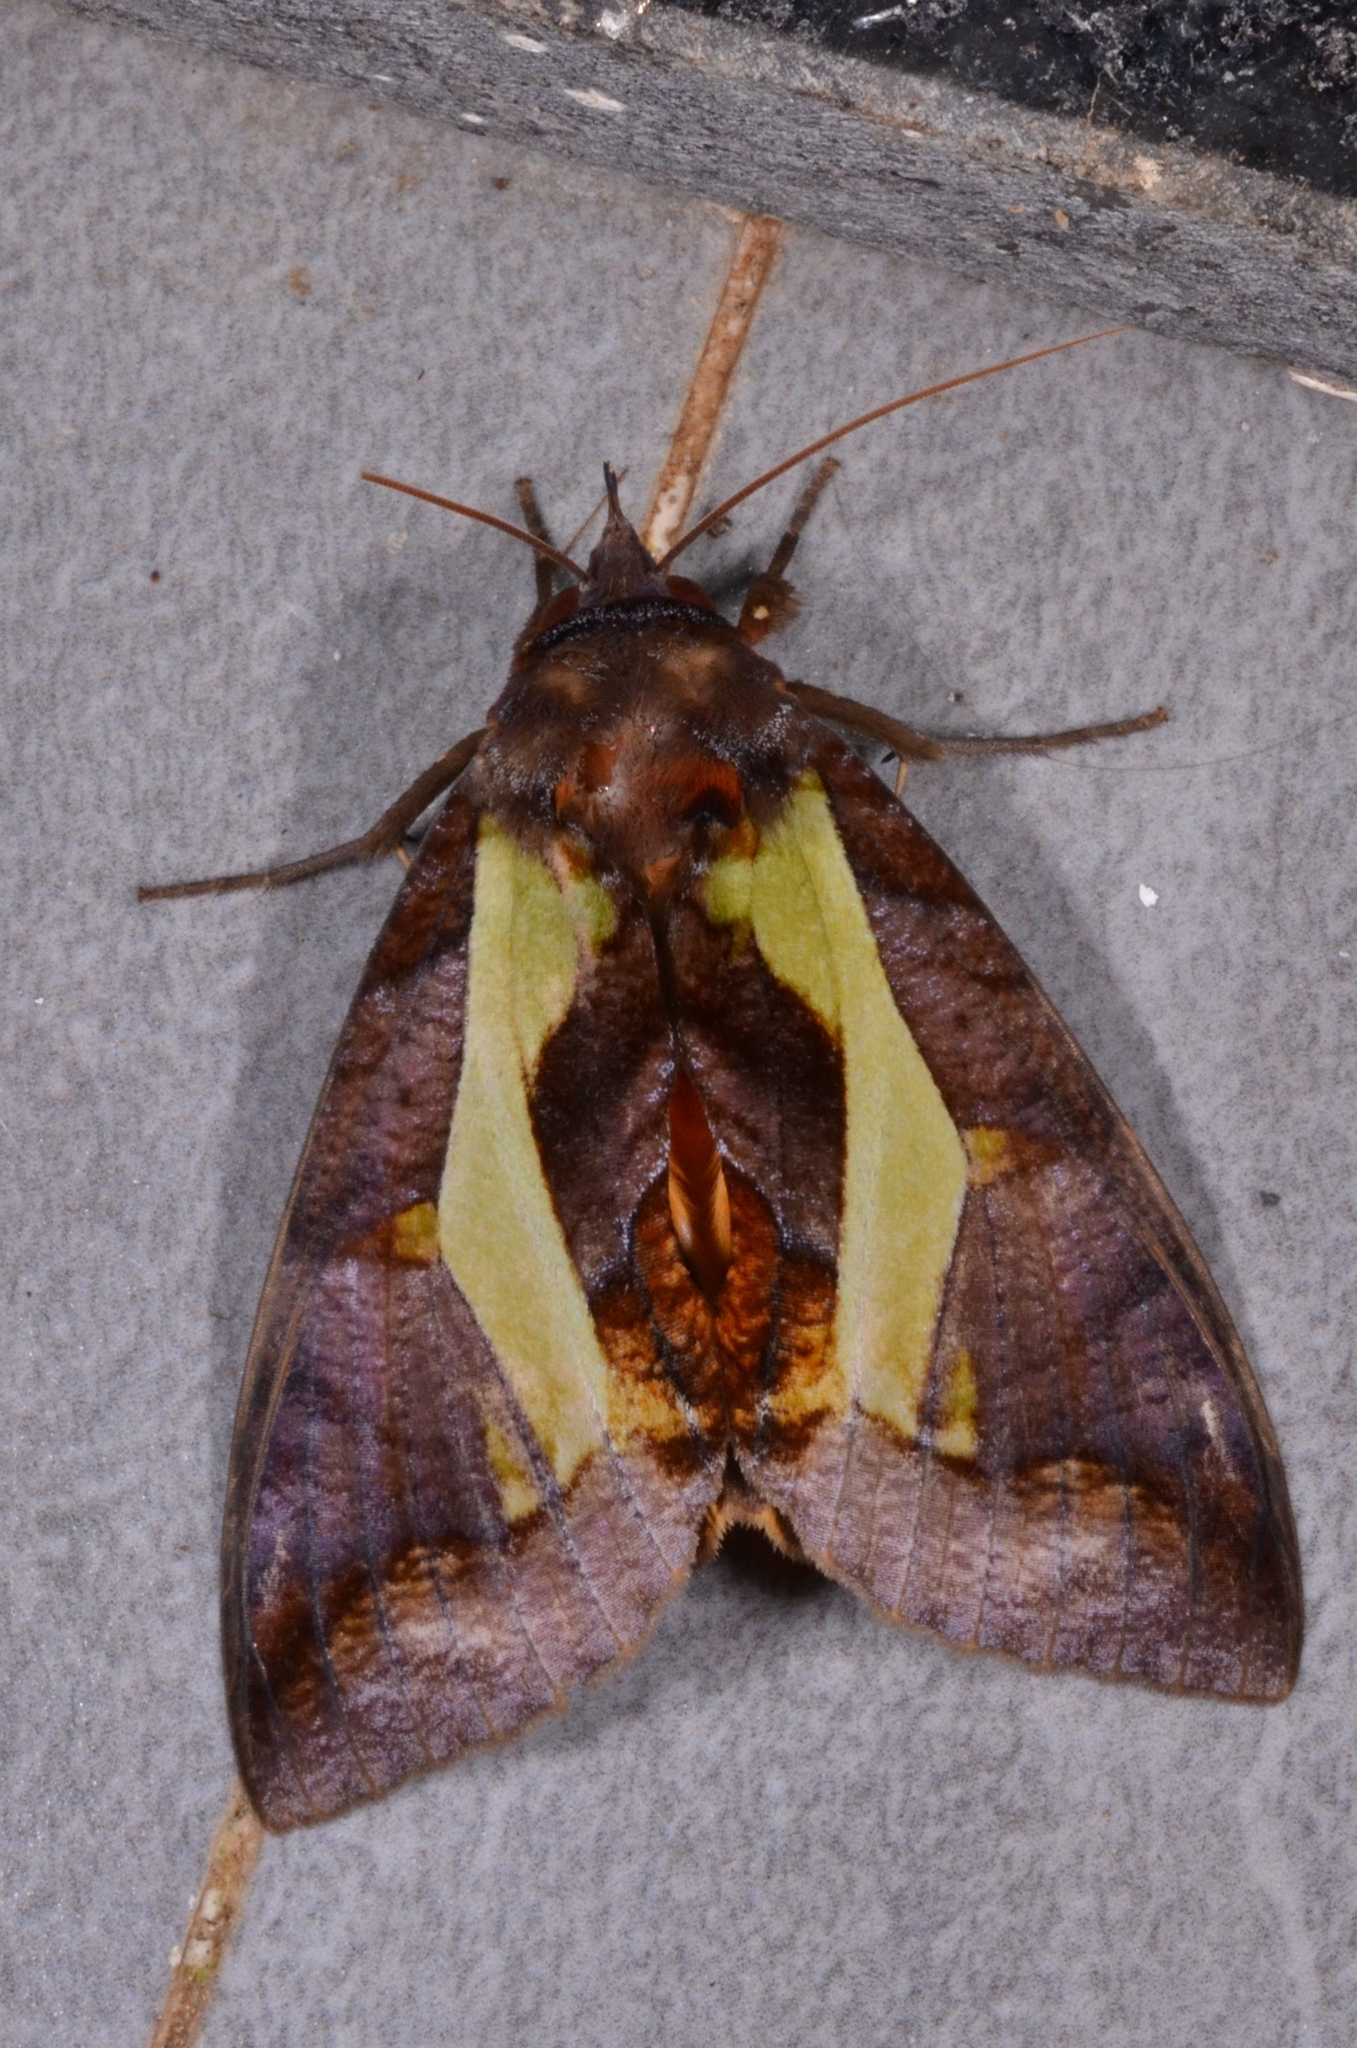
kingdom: Animalia
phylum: Arthropoda
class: Insecta
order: Lepidoptera
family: Erebidae
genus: Eudocima
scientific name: Eudocima homaena
